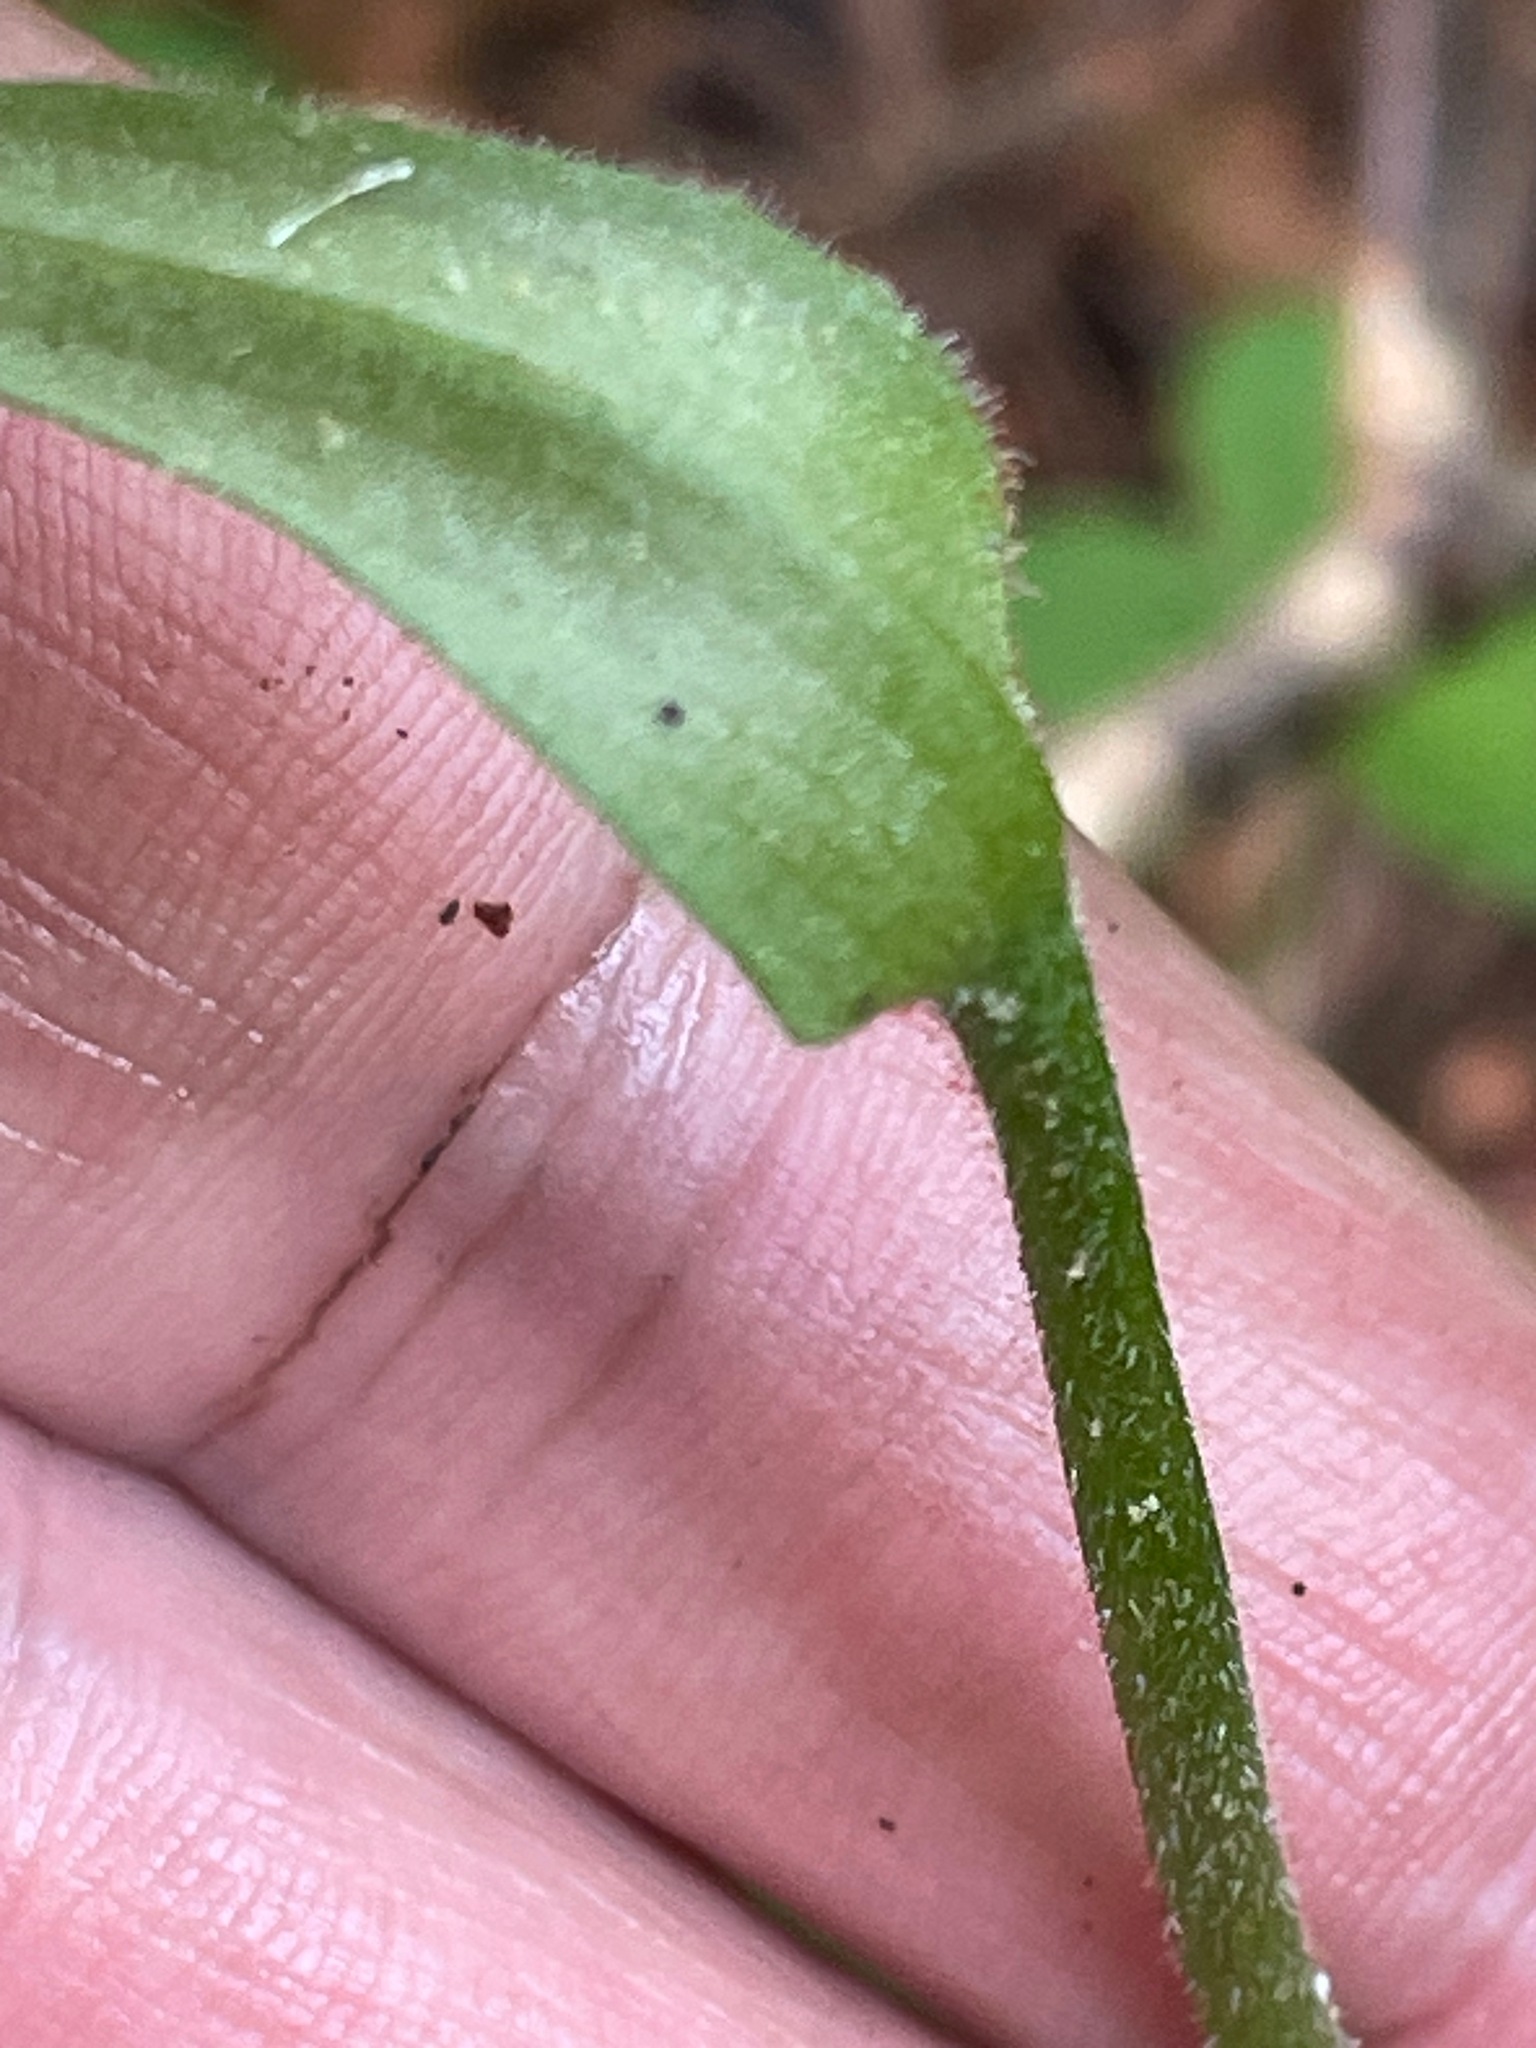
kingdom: Plantae
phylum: Tracheophyta
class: Liliopsida
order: Asparagales
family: Orchidaceae
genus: Cypripedium
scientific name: Cypripedium acaule
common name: Pink lady's-slipper
